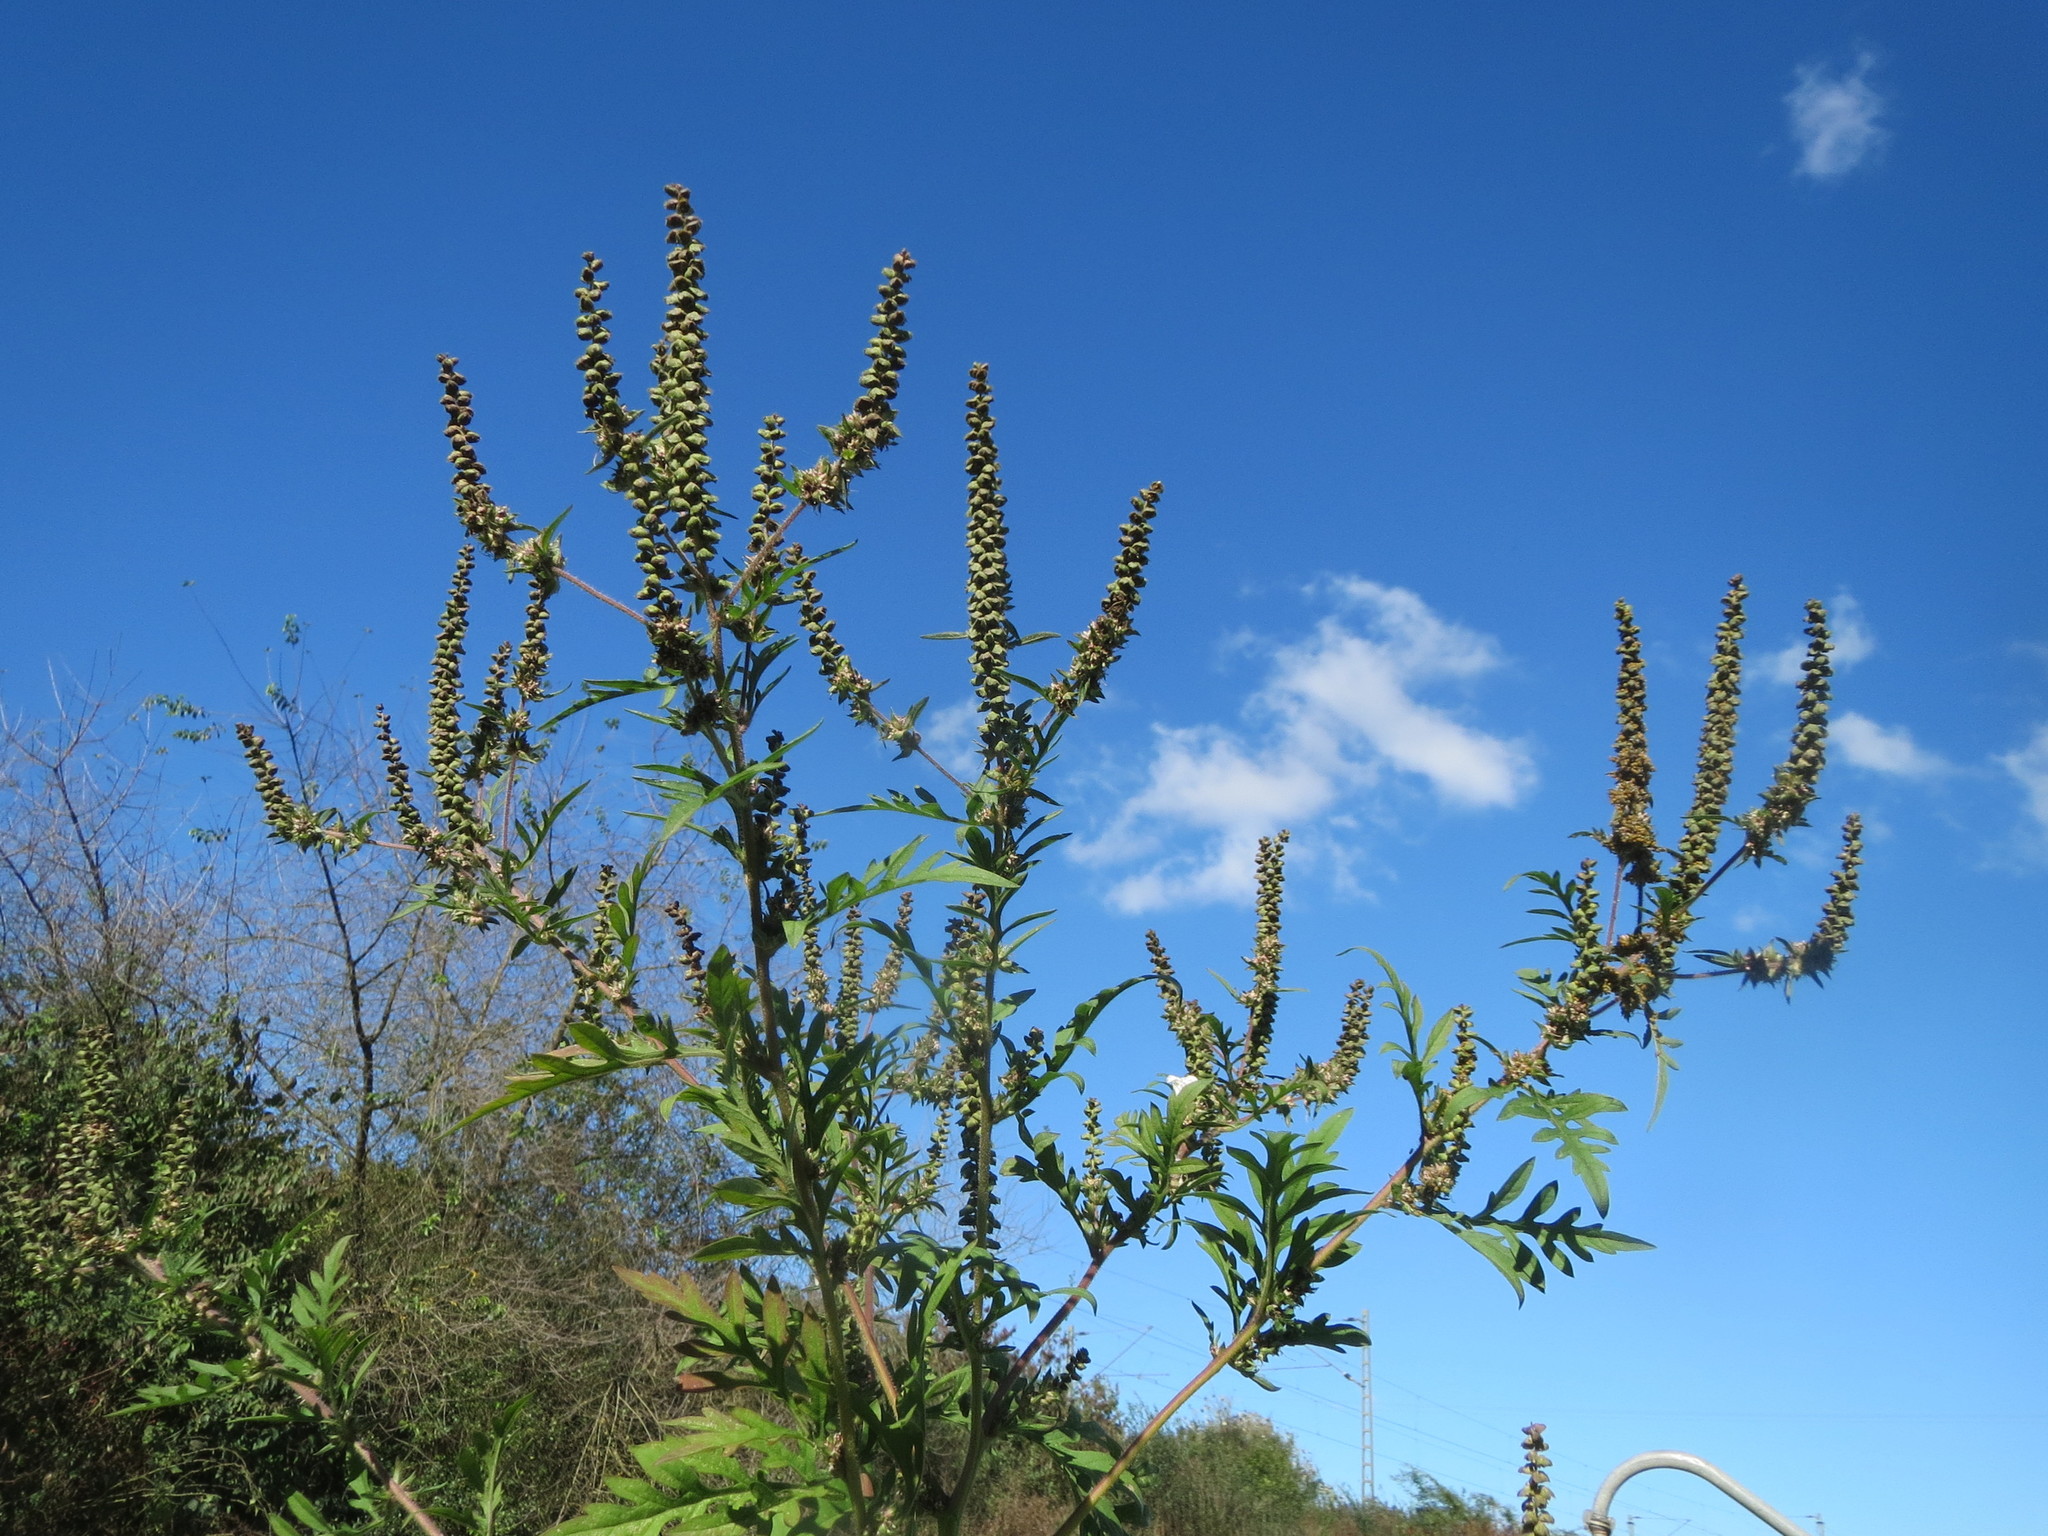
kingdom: Plantae
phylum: Tracheophyta
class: Magnoliopsida
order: Asterales
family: Asteraceae
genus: Ambrosia
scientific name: Ambrosia artemisiifolia
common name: Annual ragweed
